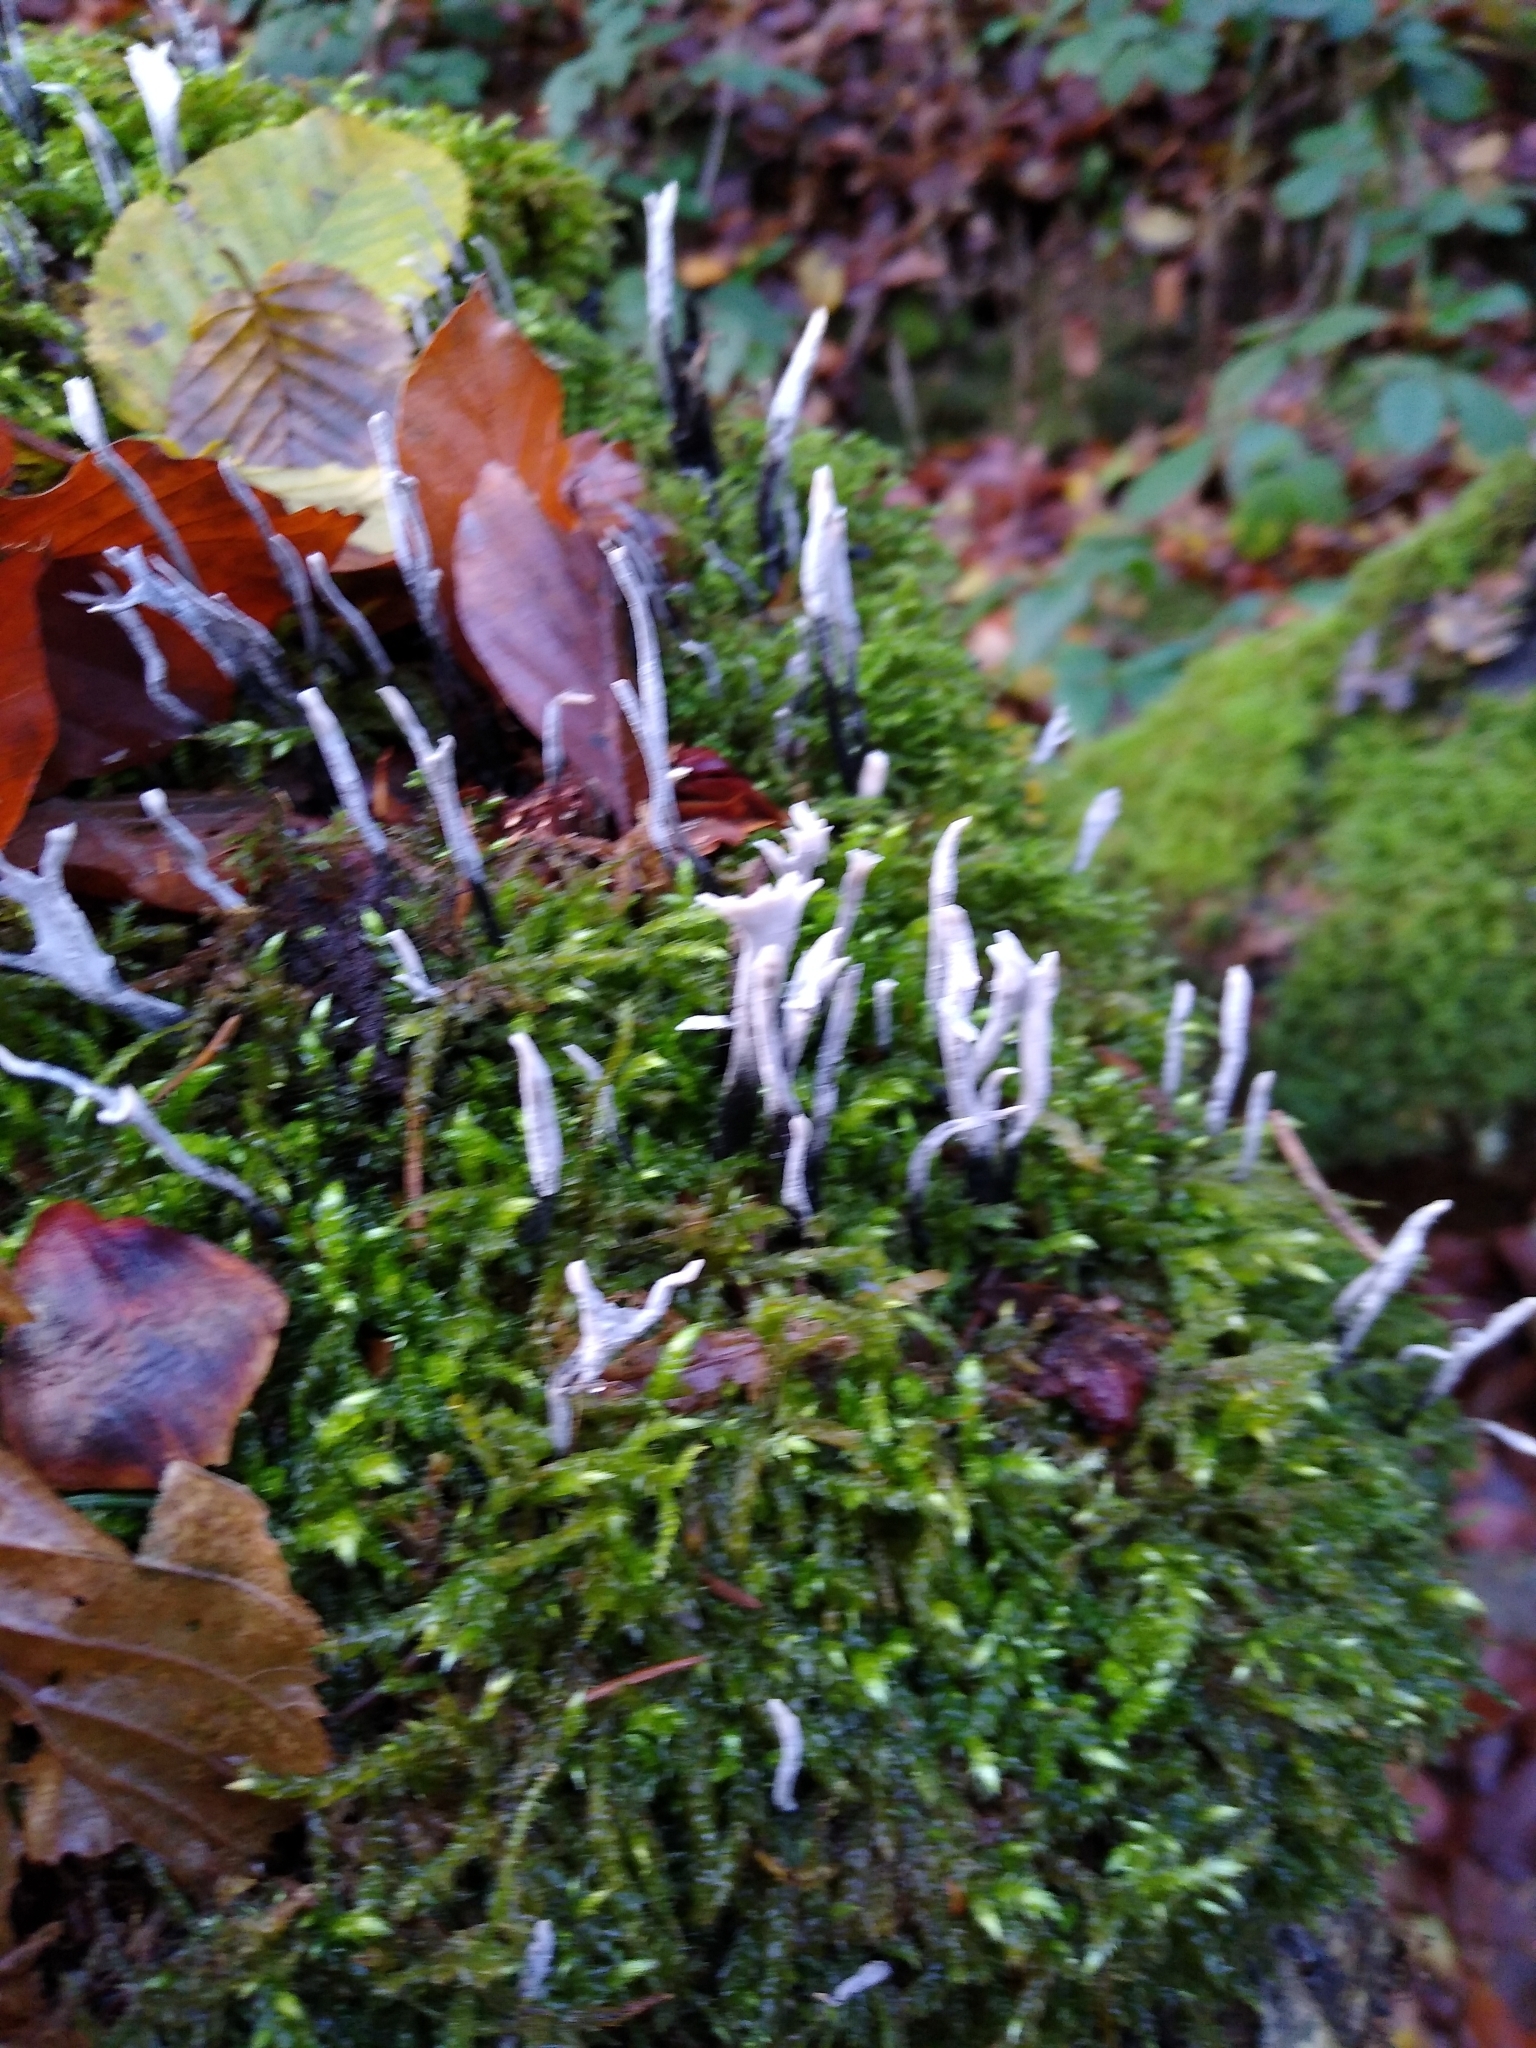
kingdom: Fungi
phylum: Ascomycota
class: Sordariomycetes
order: Xylariales
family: Xylariaceae
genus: Xylaria
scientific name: Xylaria hypoxylon
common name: Candle-snuff fungus
